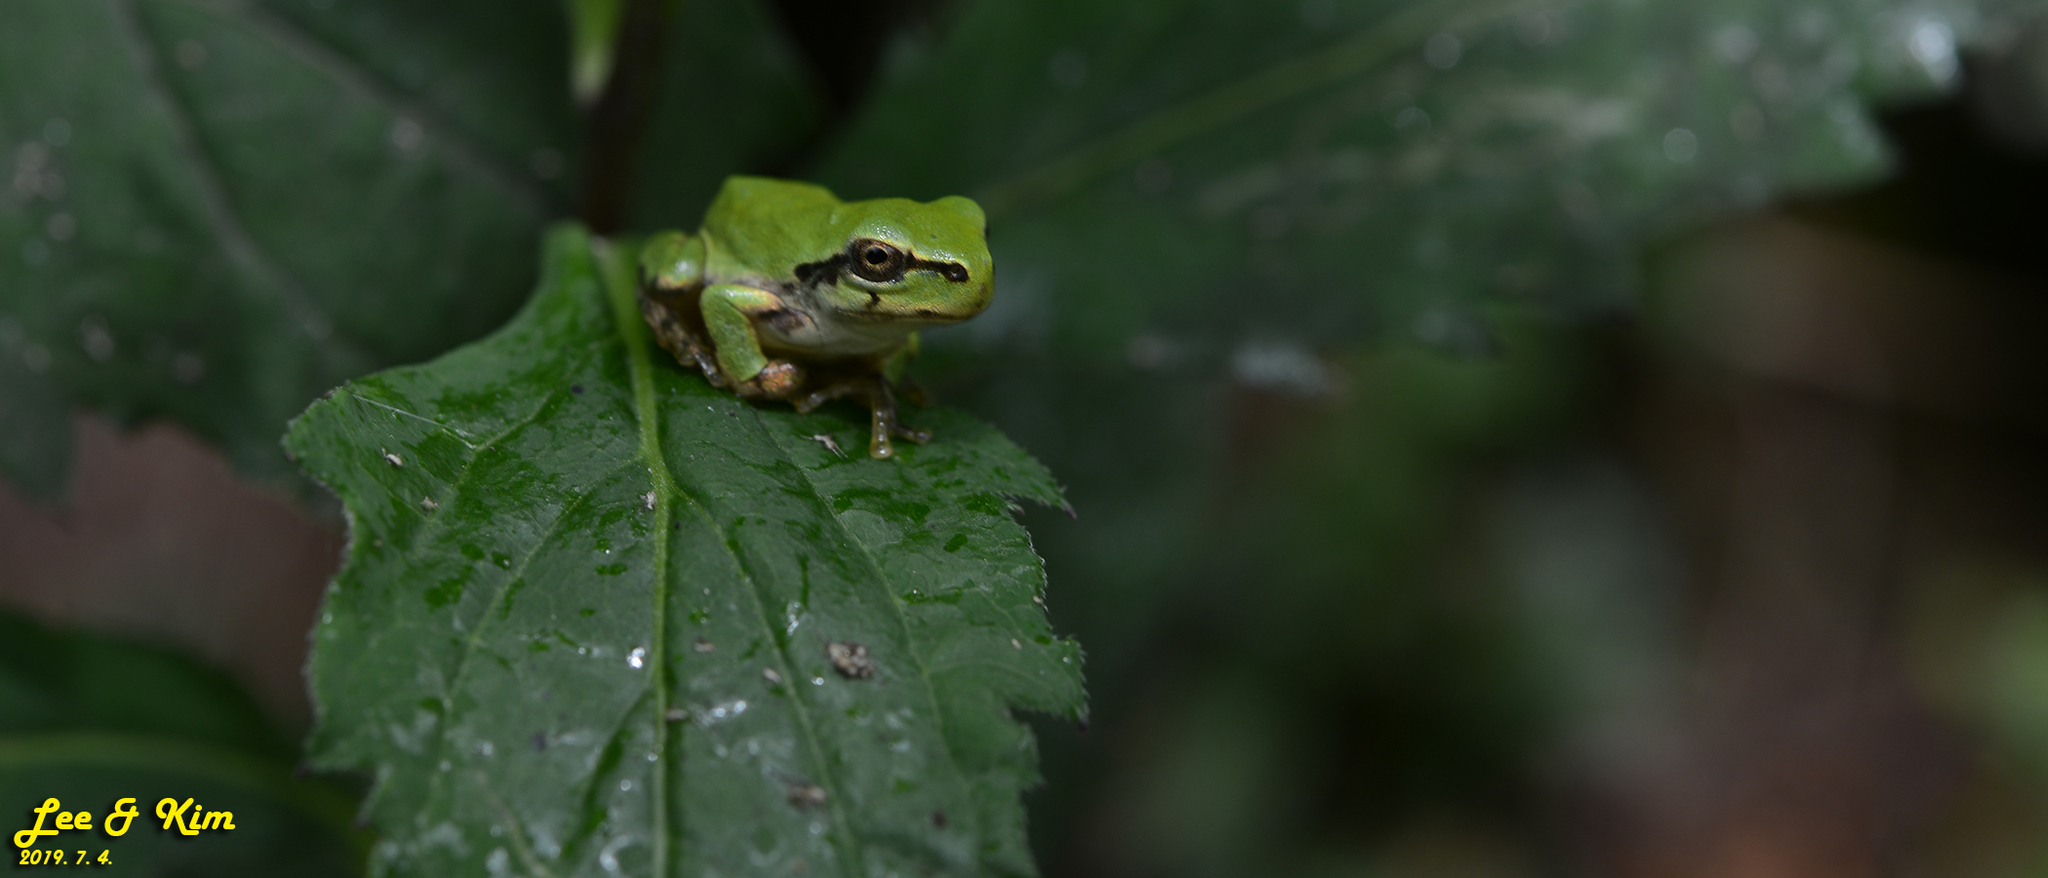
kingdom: Animalia
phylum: Chordata
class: Amphibia
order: Anura
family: Hylidae
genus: Dryophytes
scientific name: Dryophytes japonicus
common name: Japanese treefrog
